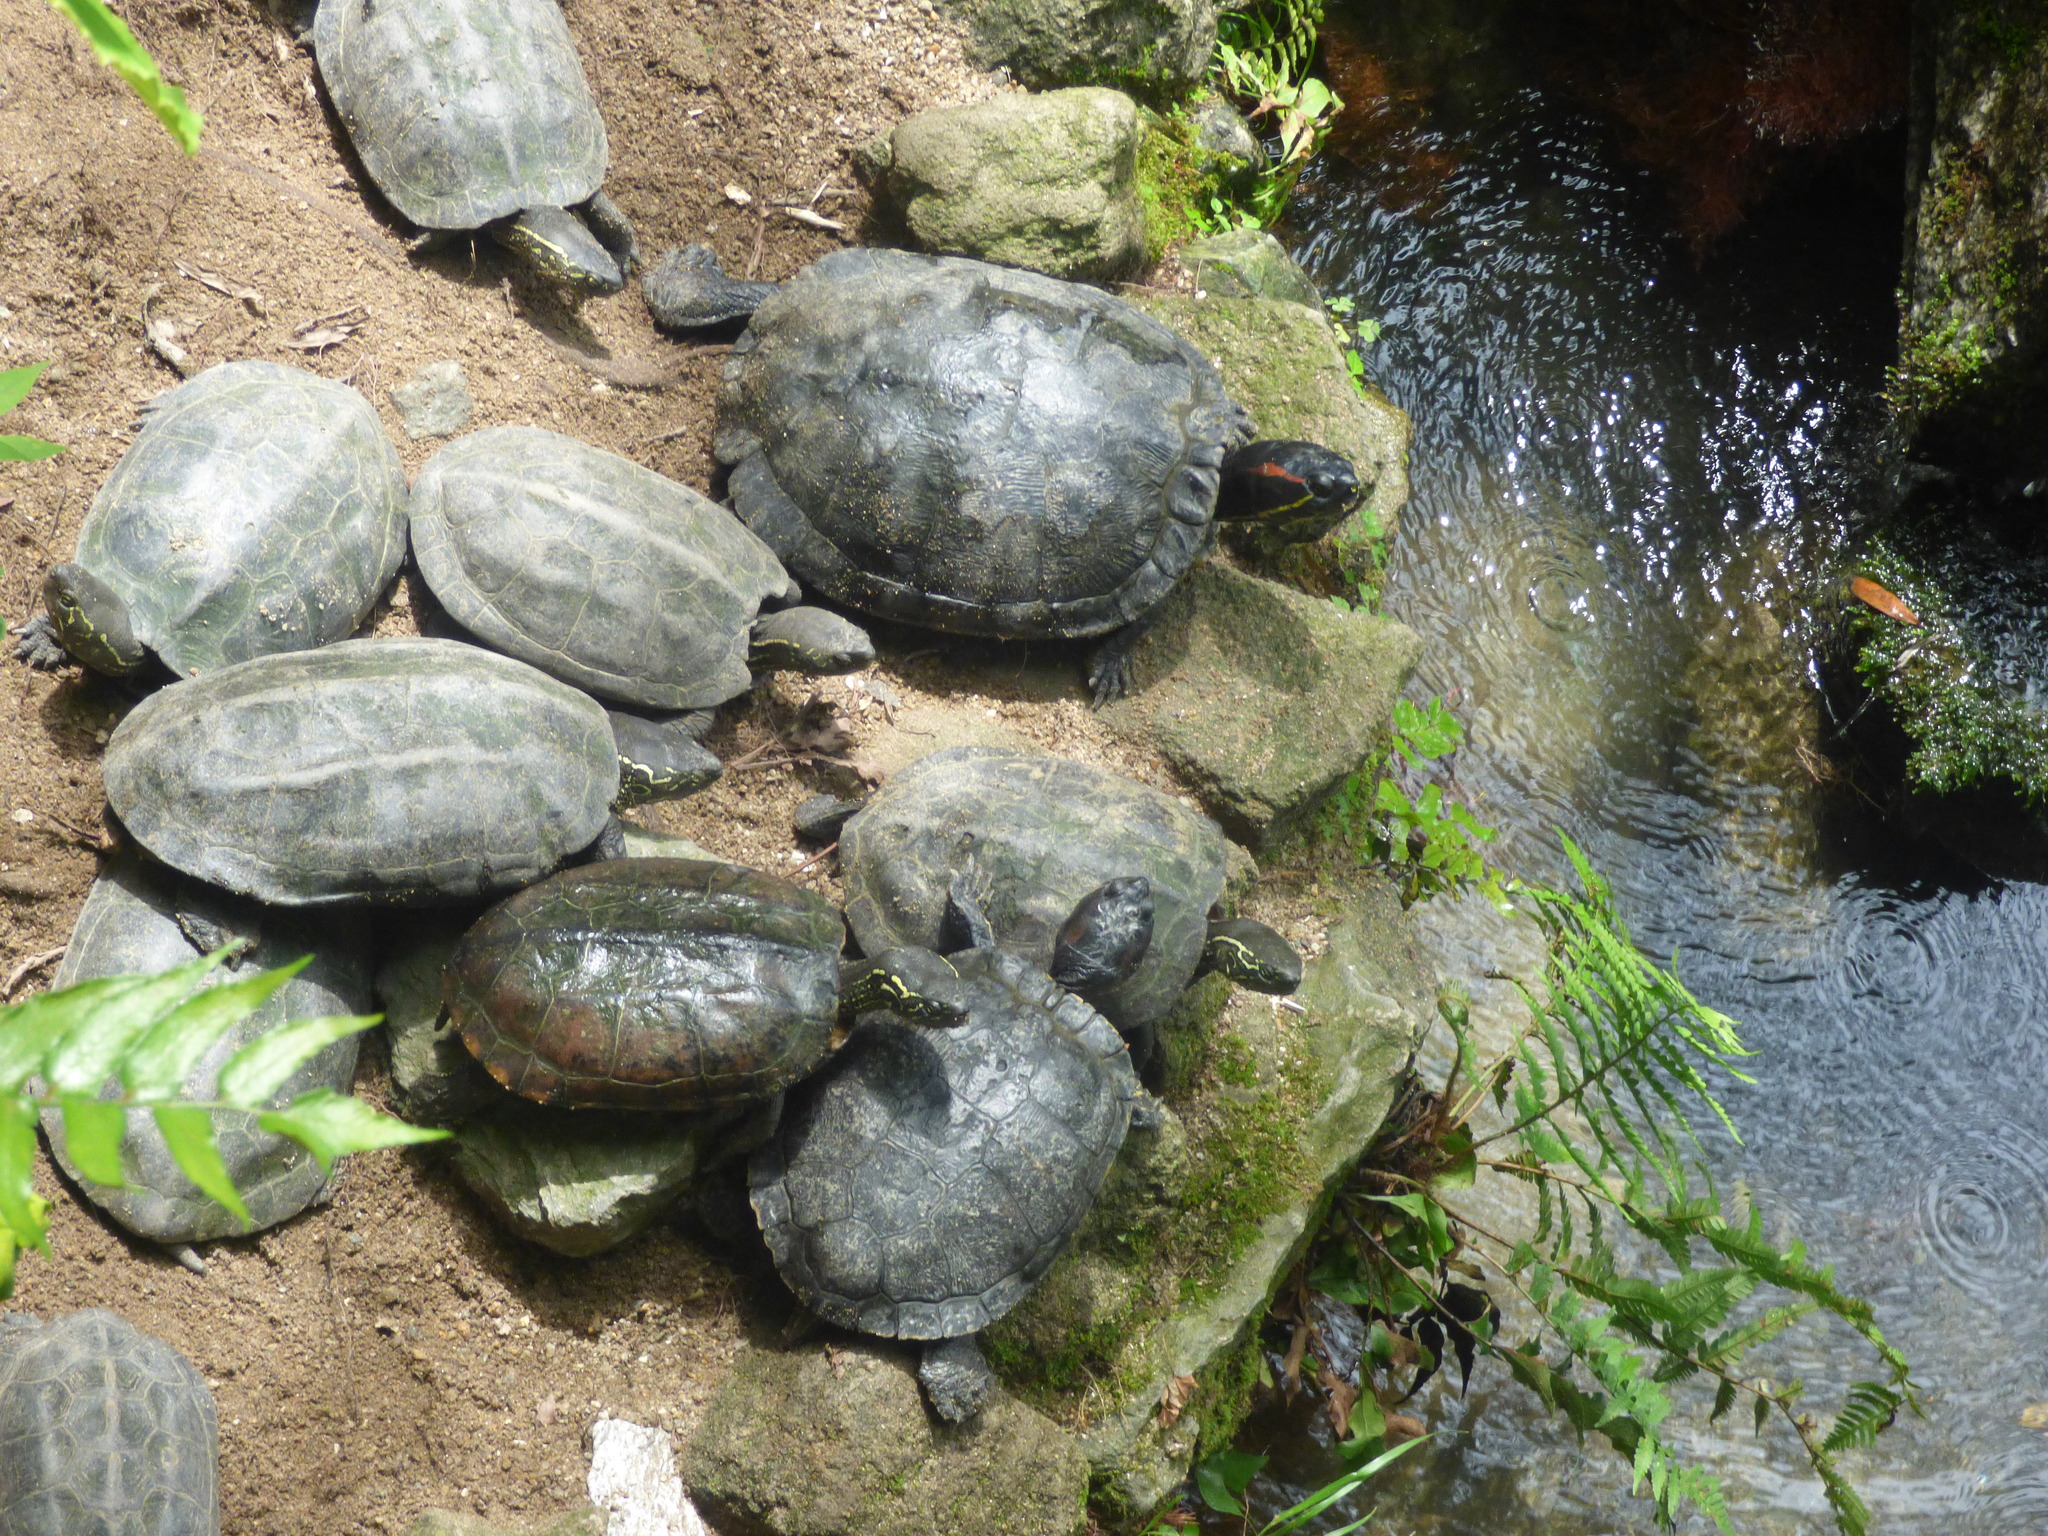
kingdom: Animalia
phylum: Chordata
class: Testudines
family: Geoemydidae
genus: Mauremys
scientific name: Mauremys reevesii
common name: Chinese pond turtle
